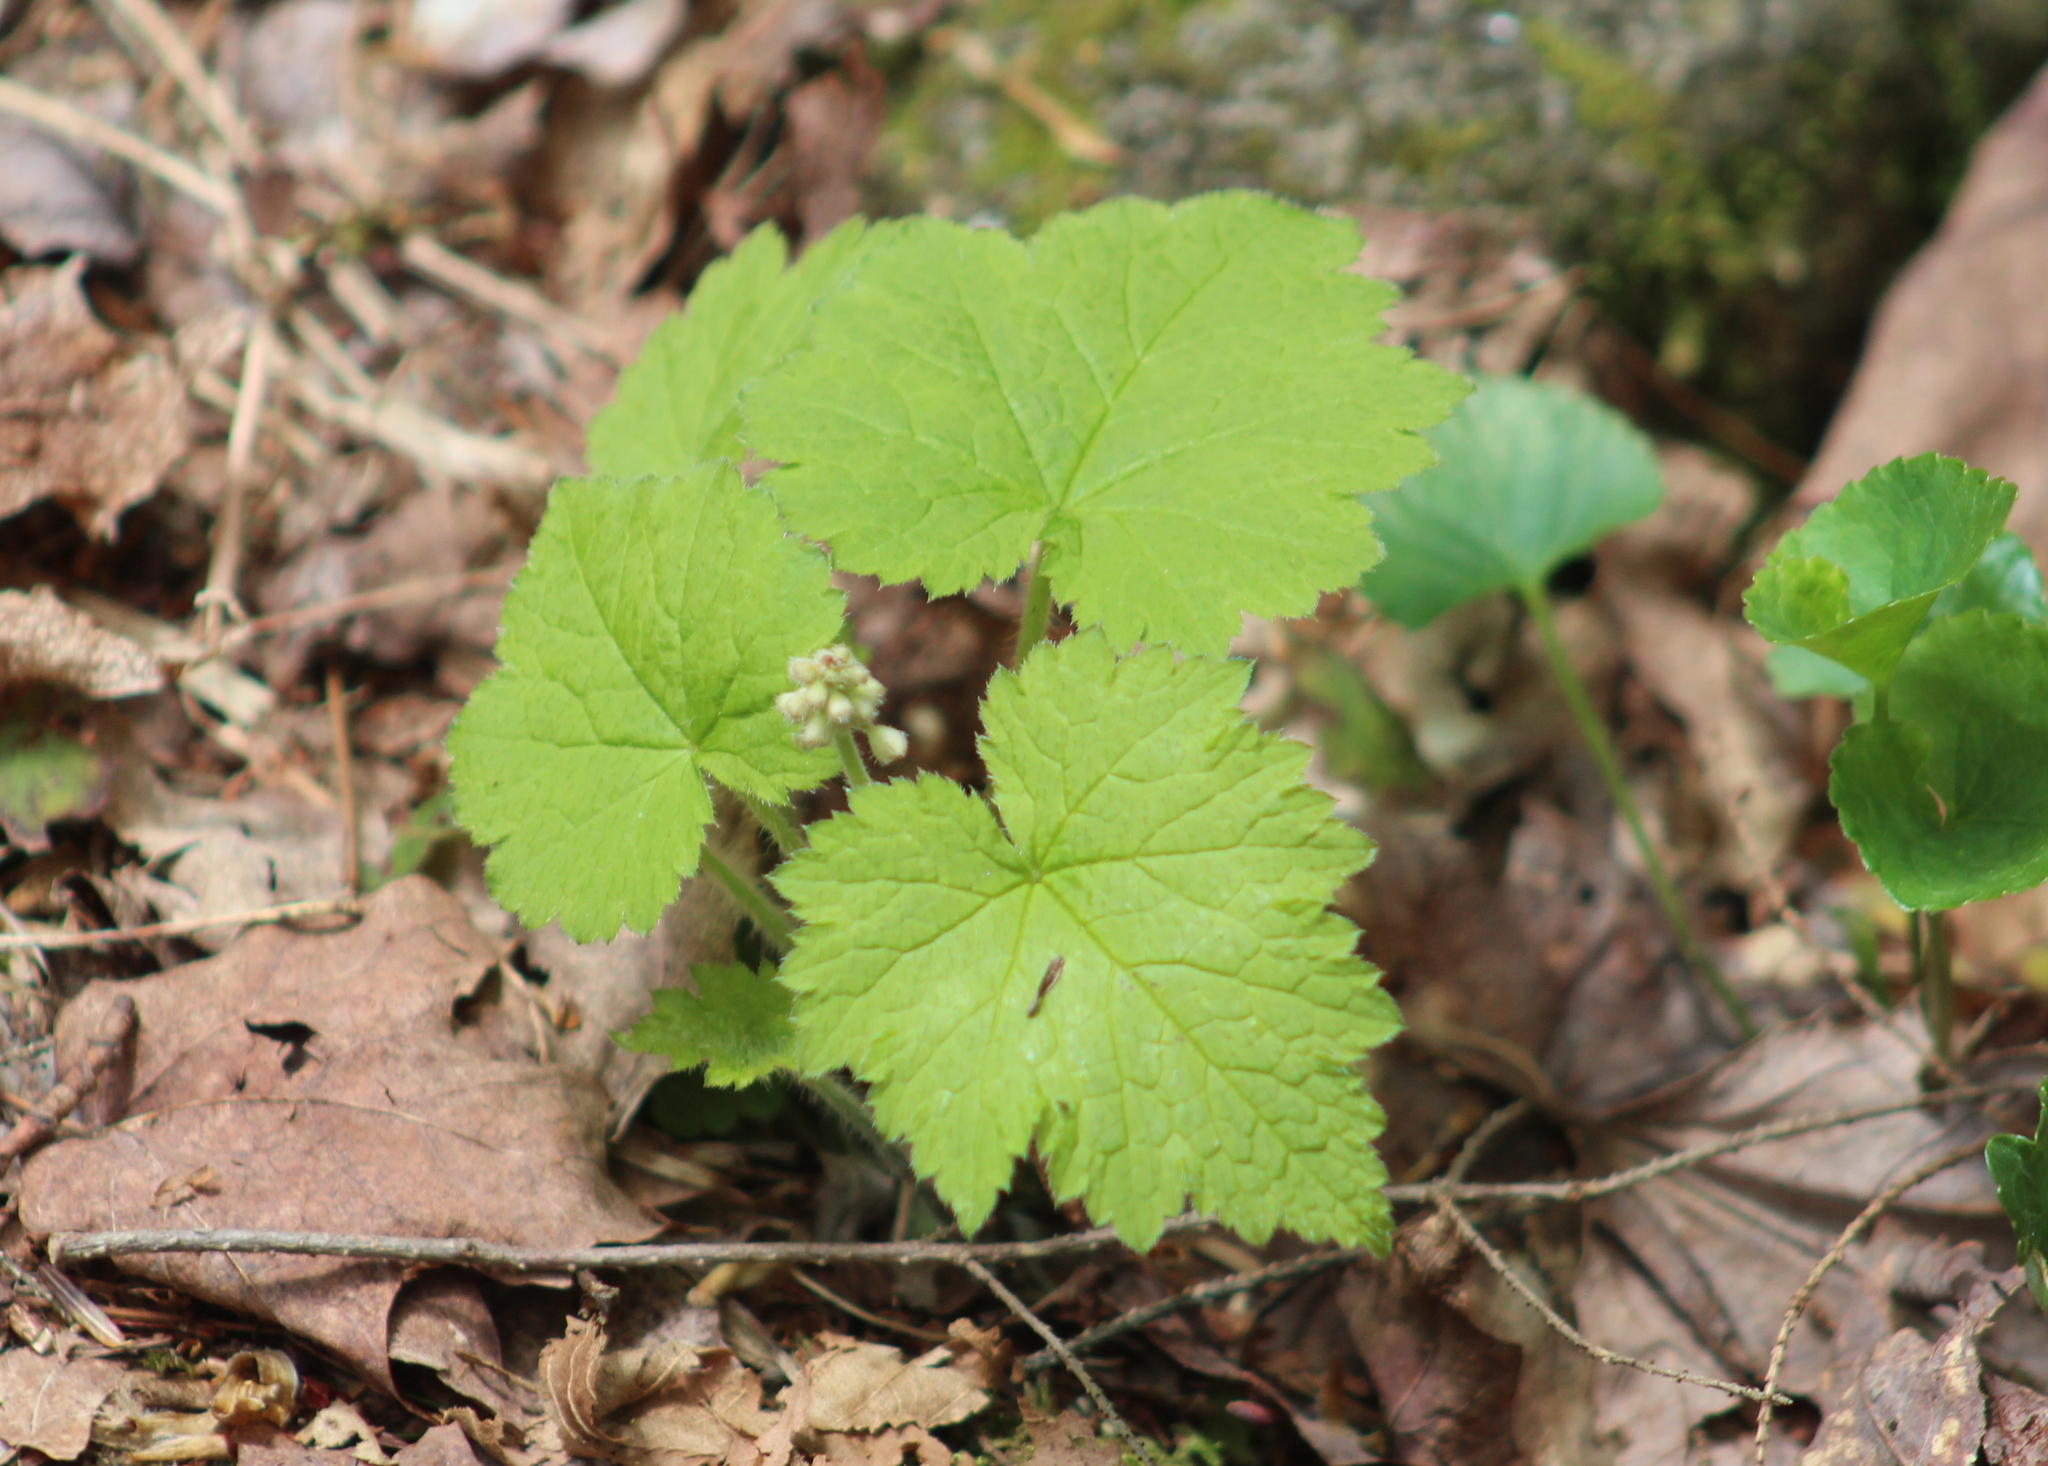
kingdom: Plantae
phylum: Tracheophyta
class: Magnoliopsida
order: Saxifragales
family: Saxifragaceae
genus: Tiarella
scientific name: Tiarella stolonifera
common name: Stoloniferous foamflower
